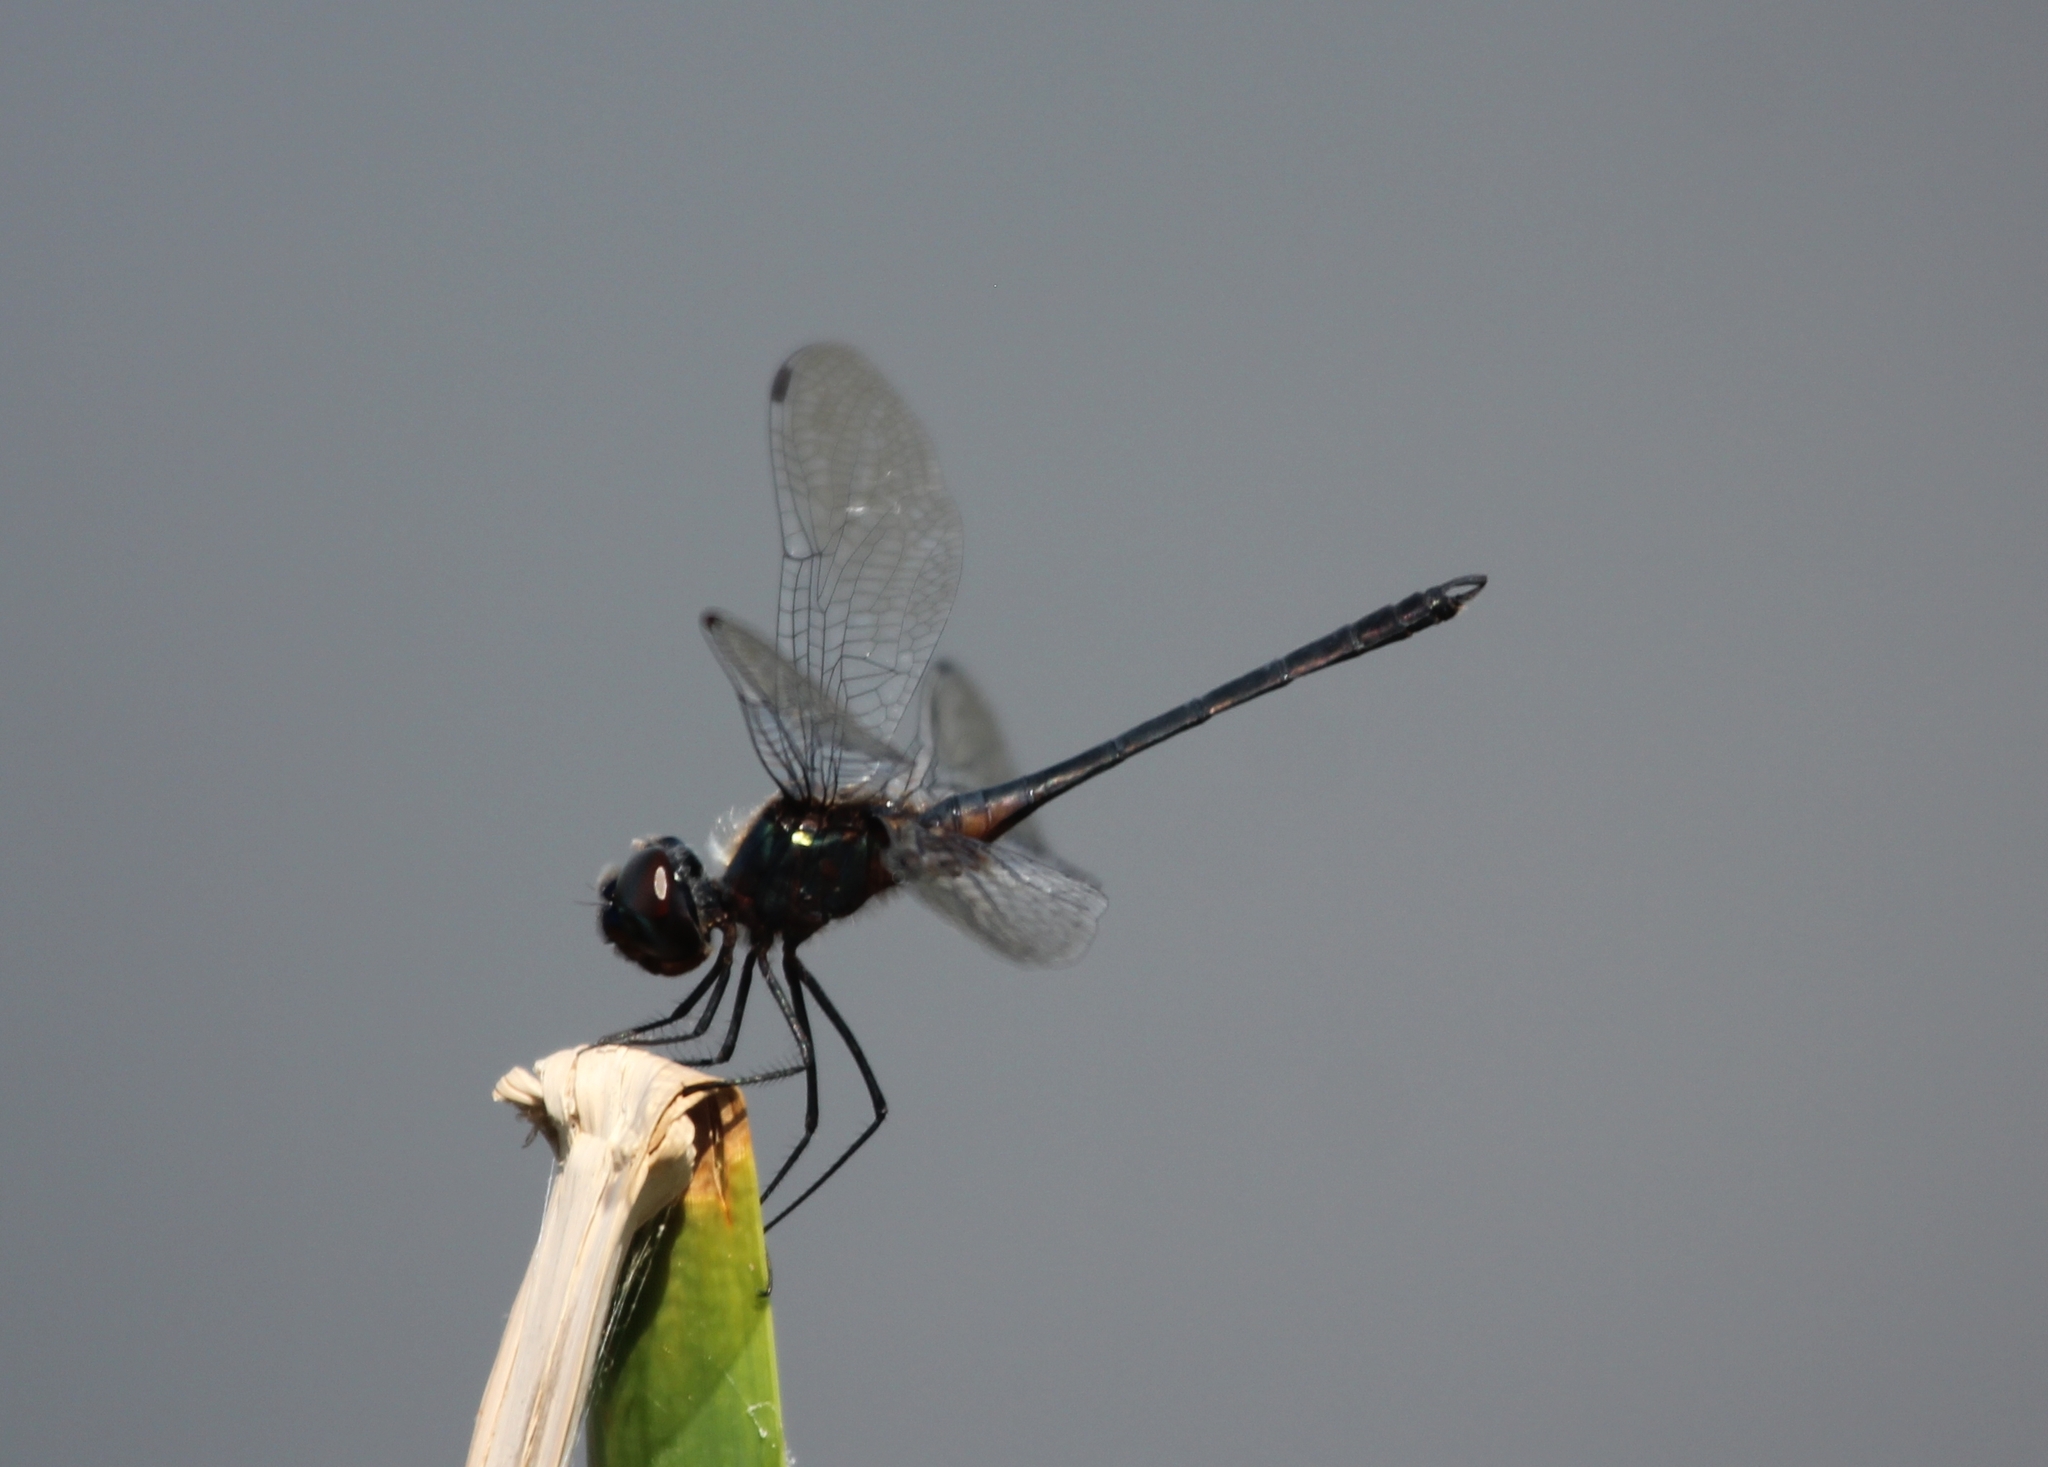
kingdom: Animalia
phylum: Arthropoda
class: Insecta
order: Odonata
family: Libellulidae
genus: Idiataphe
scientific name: Idiataphe cubensis
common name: Metallic pennant
